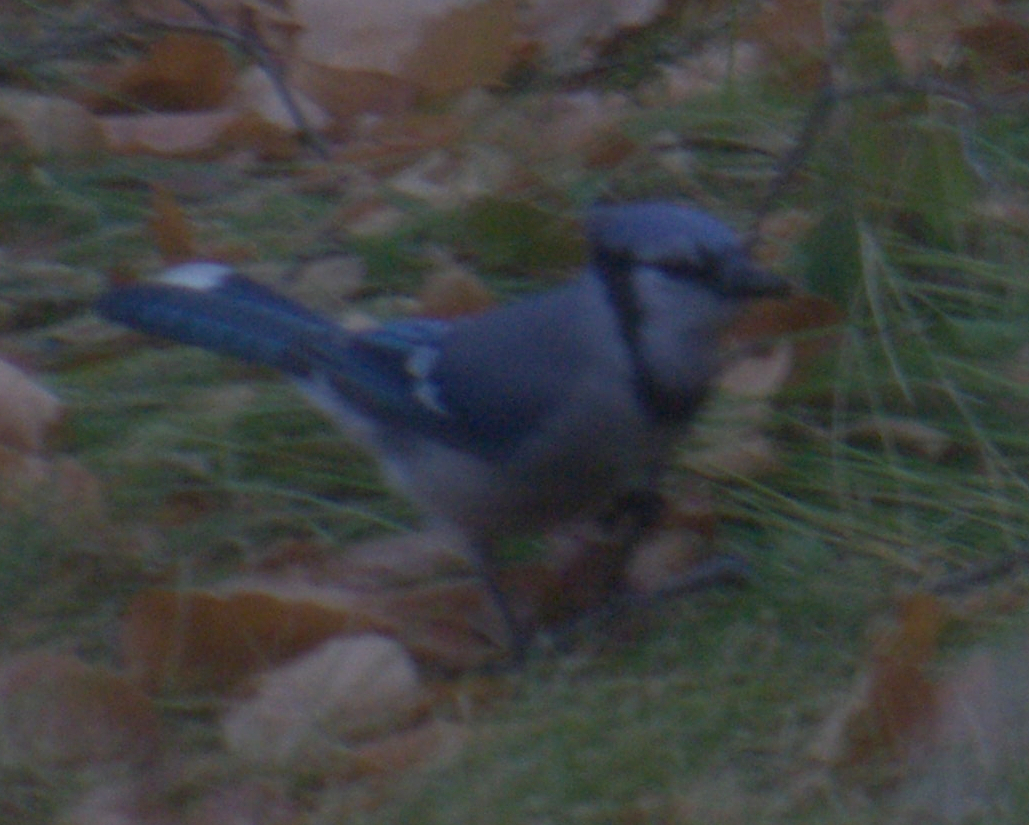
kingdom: Animalia
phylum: Chordata
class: Aves
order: Passeriformes
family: Corvidae
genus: Cyanocitta
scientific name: Cyanocitta cristata
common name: Blue jay
